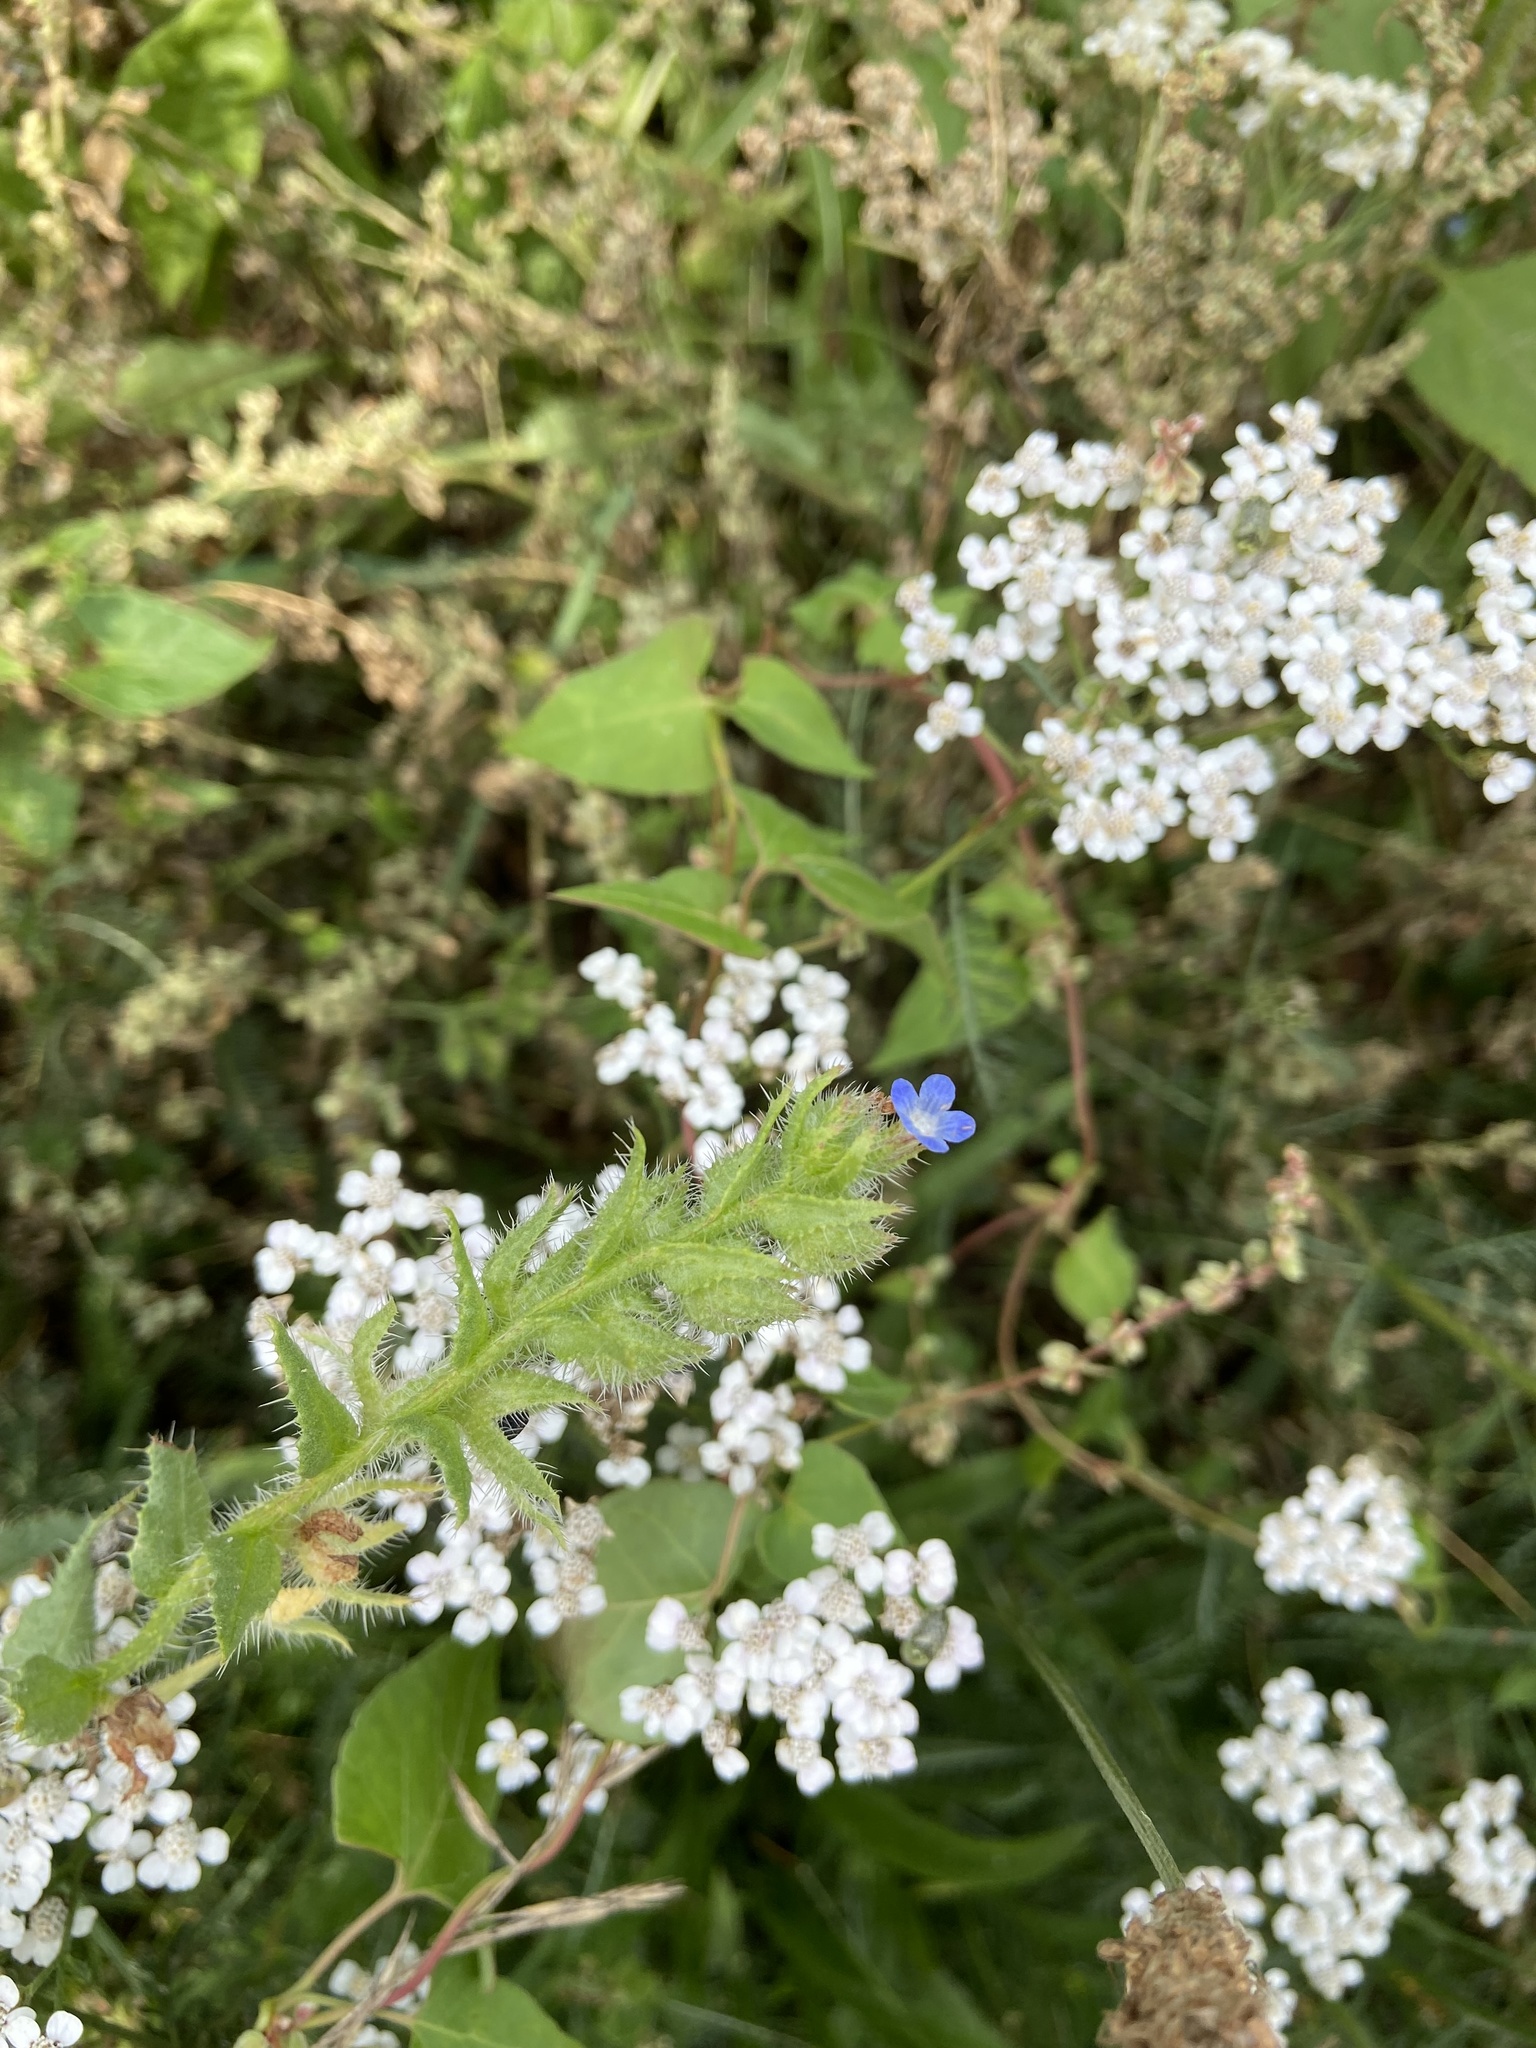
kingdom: Plantae
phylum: Tracheophyta
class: Magnoliopsida
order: Boraginales
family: Boraginaceae
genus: Lycopsis
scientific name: Lycopsis arvensis
